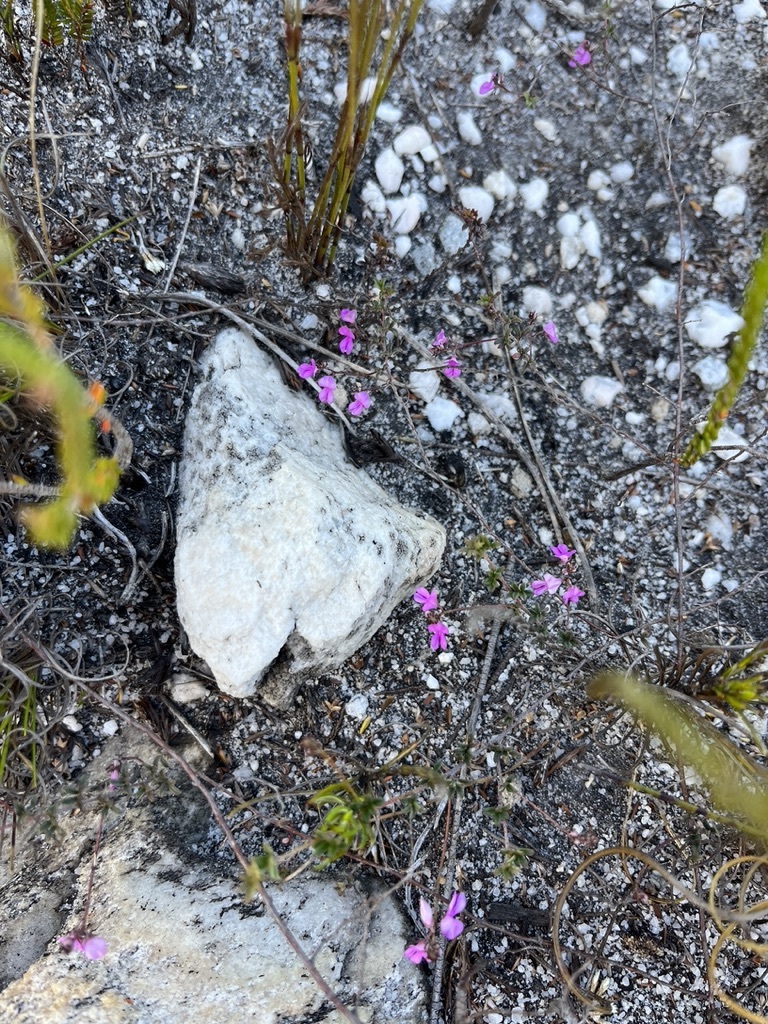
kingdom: Plantae
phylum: Tracheophyta
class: Magnoliopsida
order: Fabales
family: Fabaceae
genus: Indigofera
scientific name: Indigofera angustifolia
